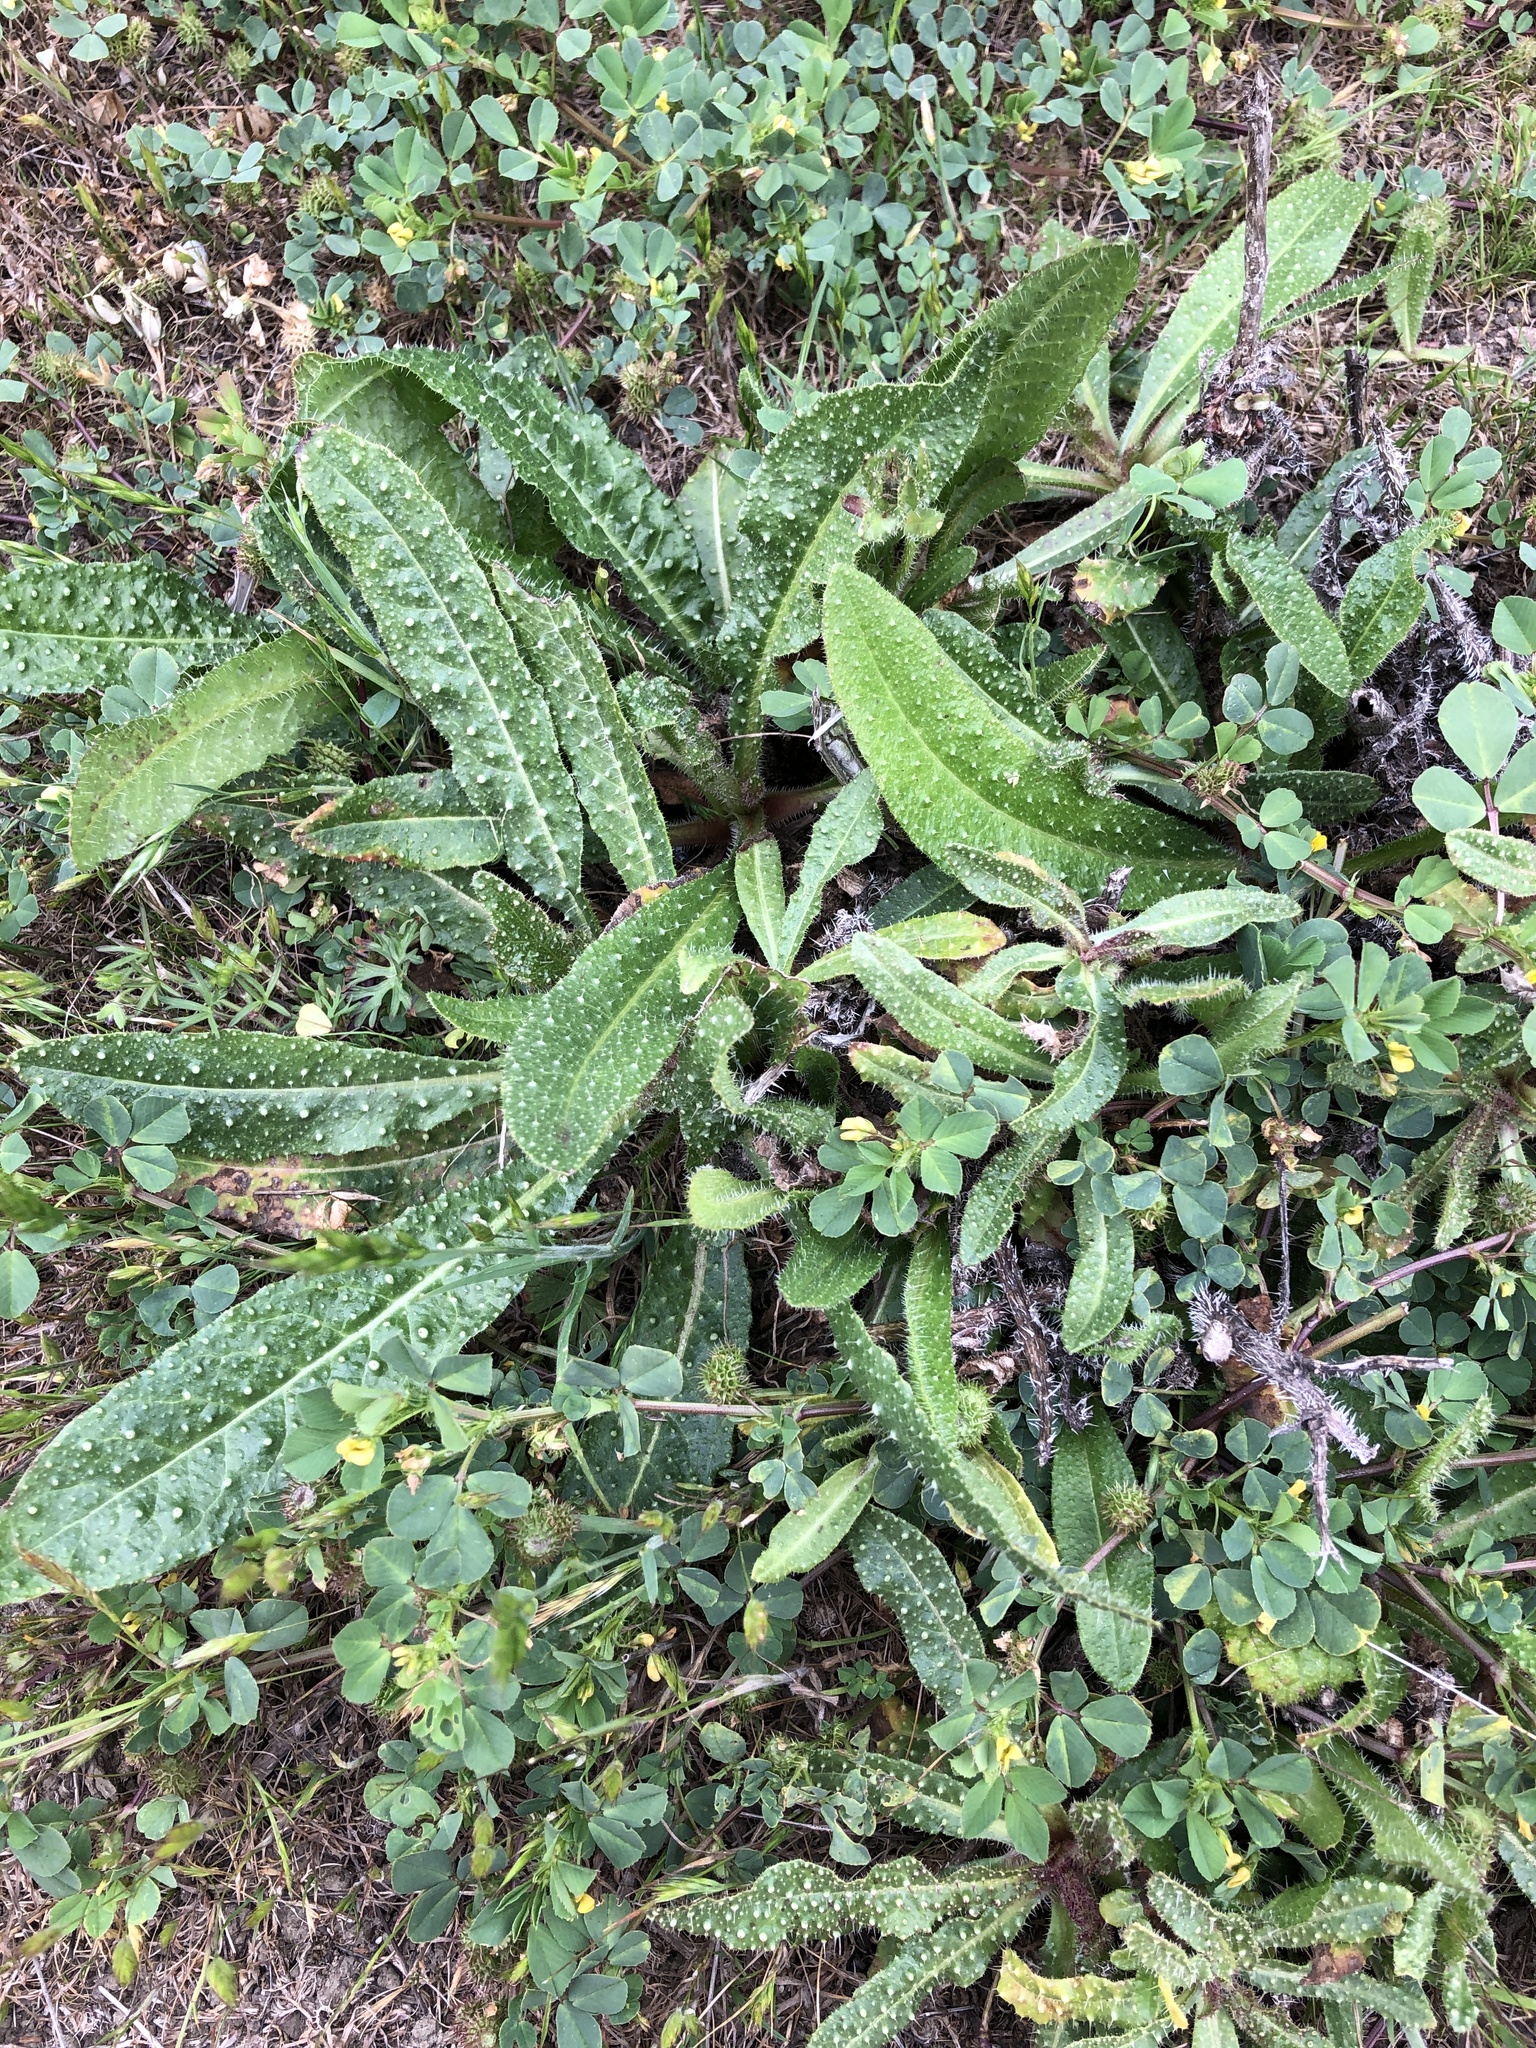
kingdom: Plantae
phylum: Tracheophyta
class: Magnoliopsida
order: Asterales
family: Asteraceae
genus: Helminthotheca
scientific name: Helminthotheca echioides
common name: Ox-tongue
